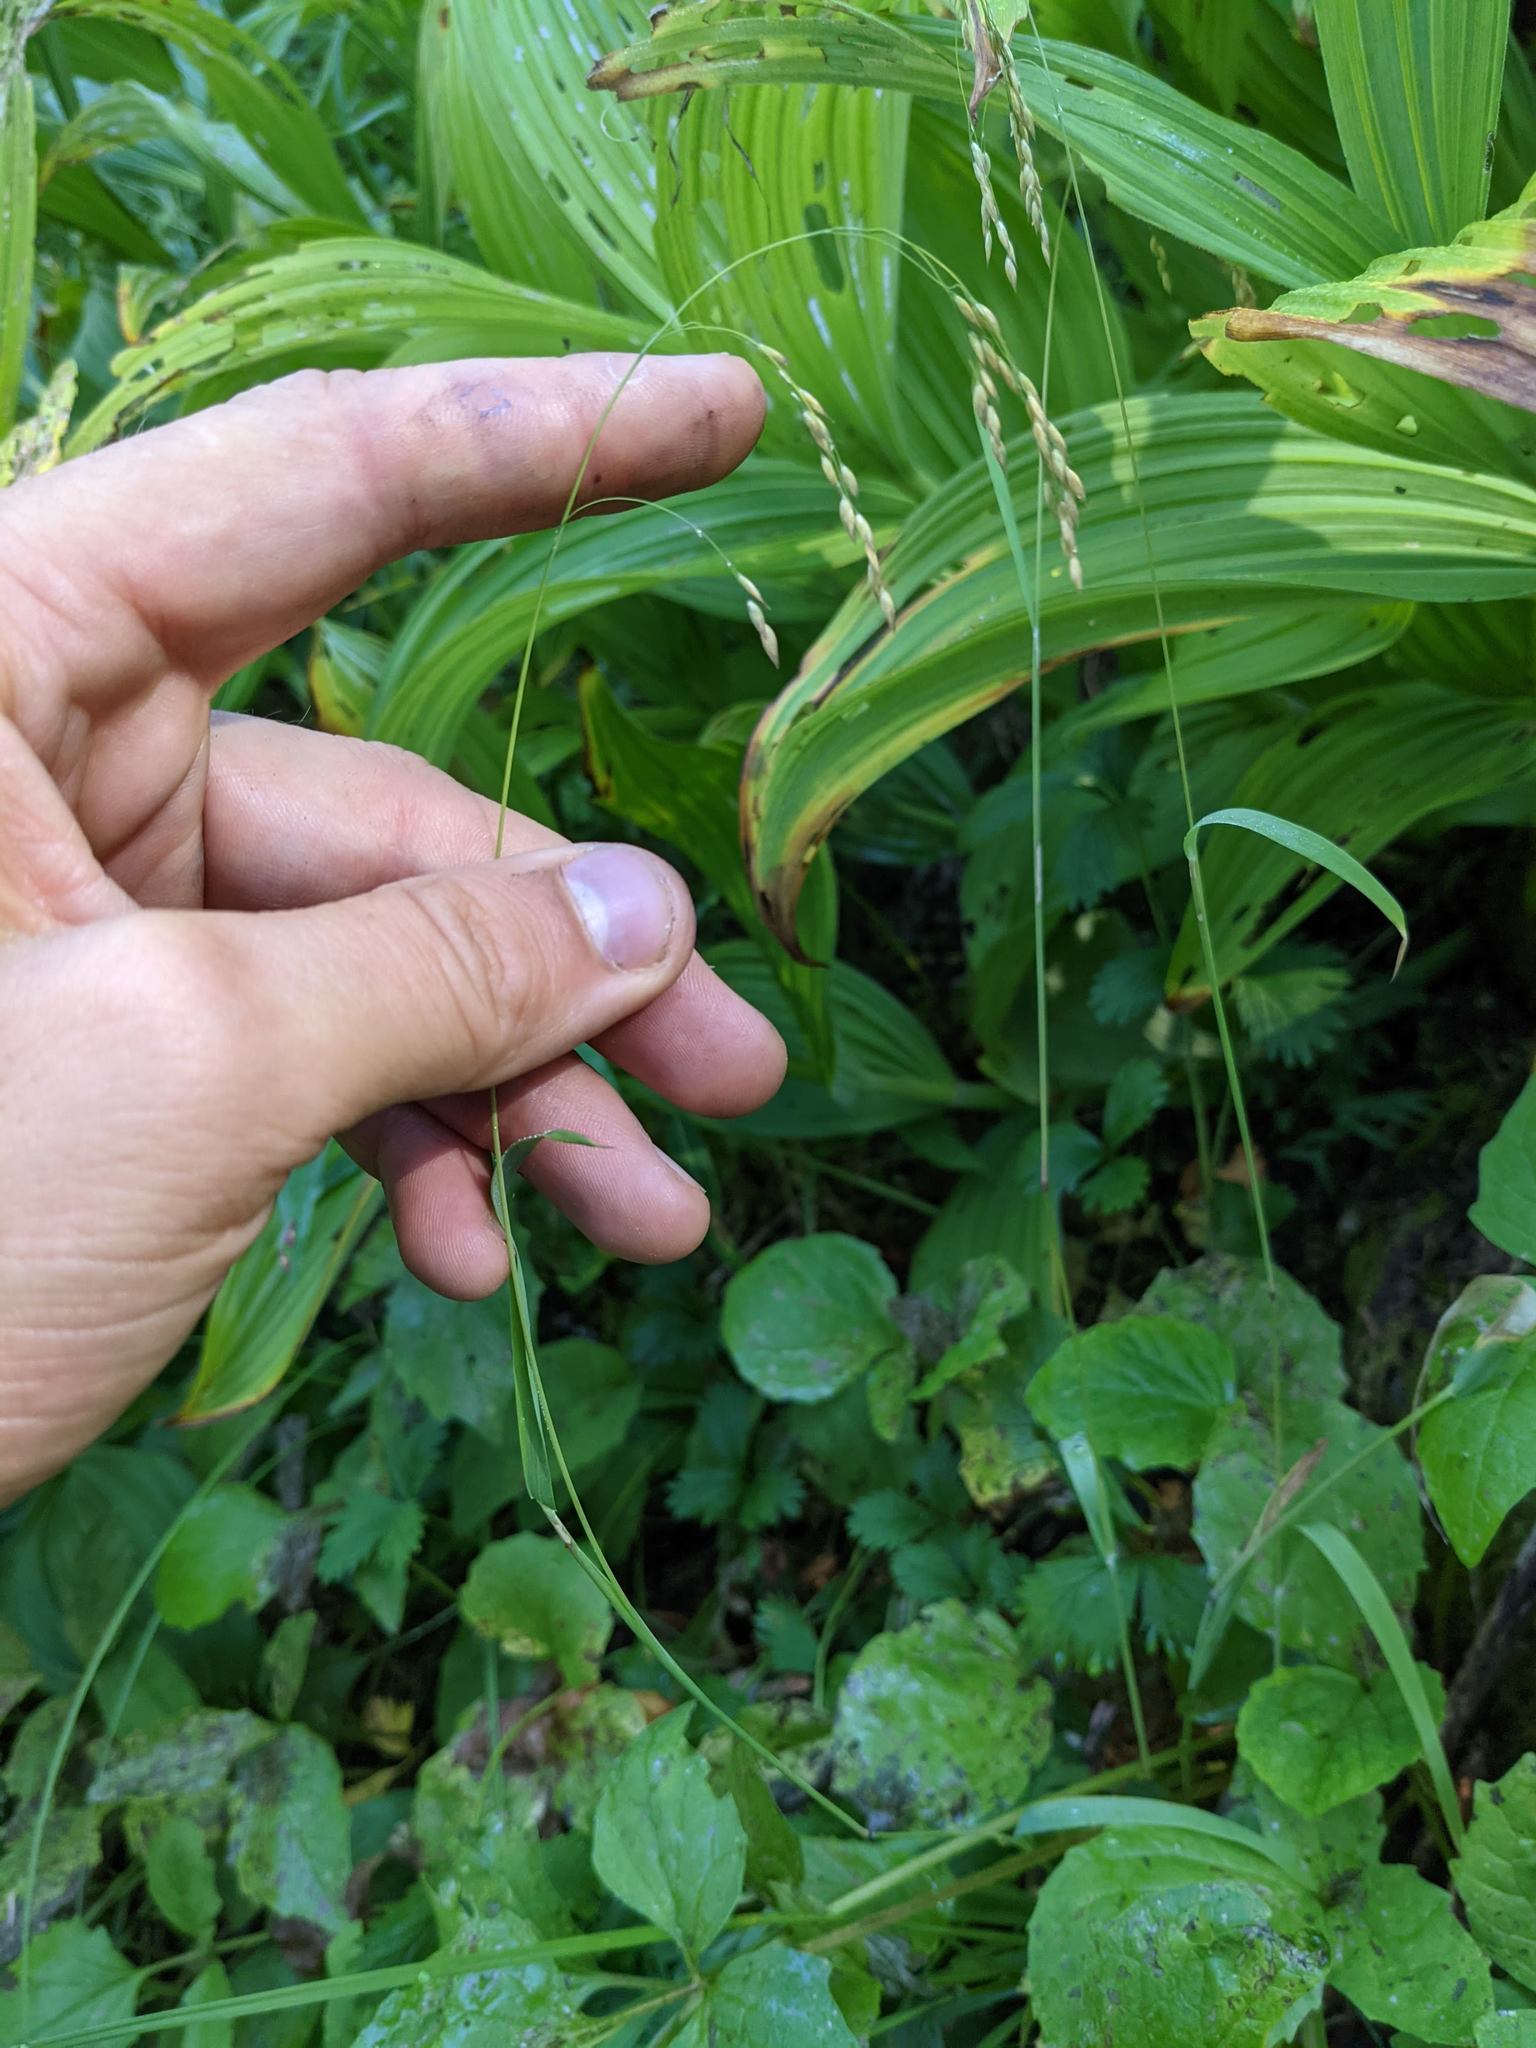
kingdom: Plantae
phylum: Tracheophyta
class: Liliopsida
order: Poales
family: Poaceae
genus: Vahlodea
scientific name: Vahlodea atropurpurea
